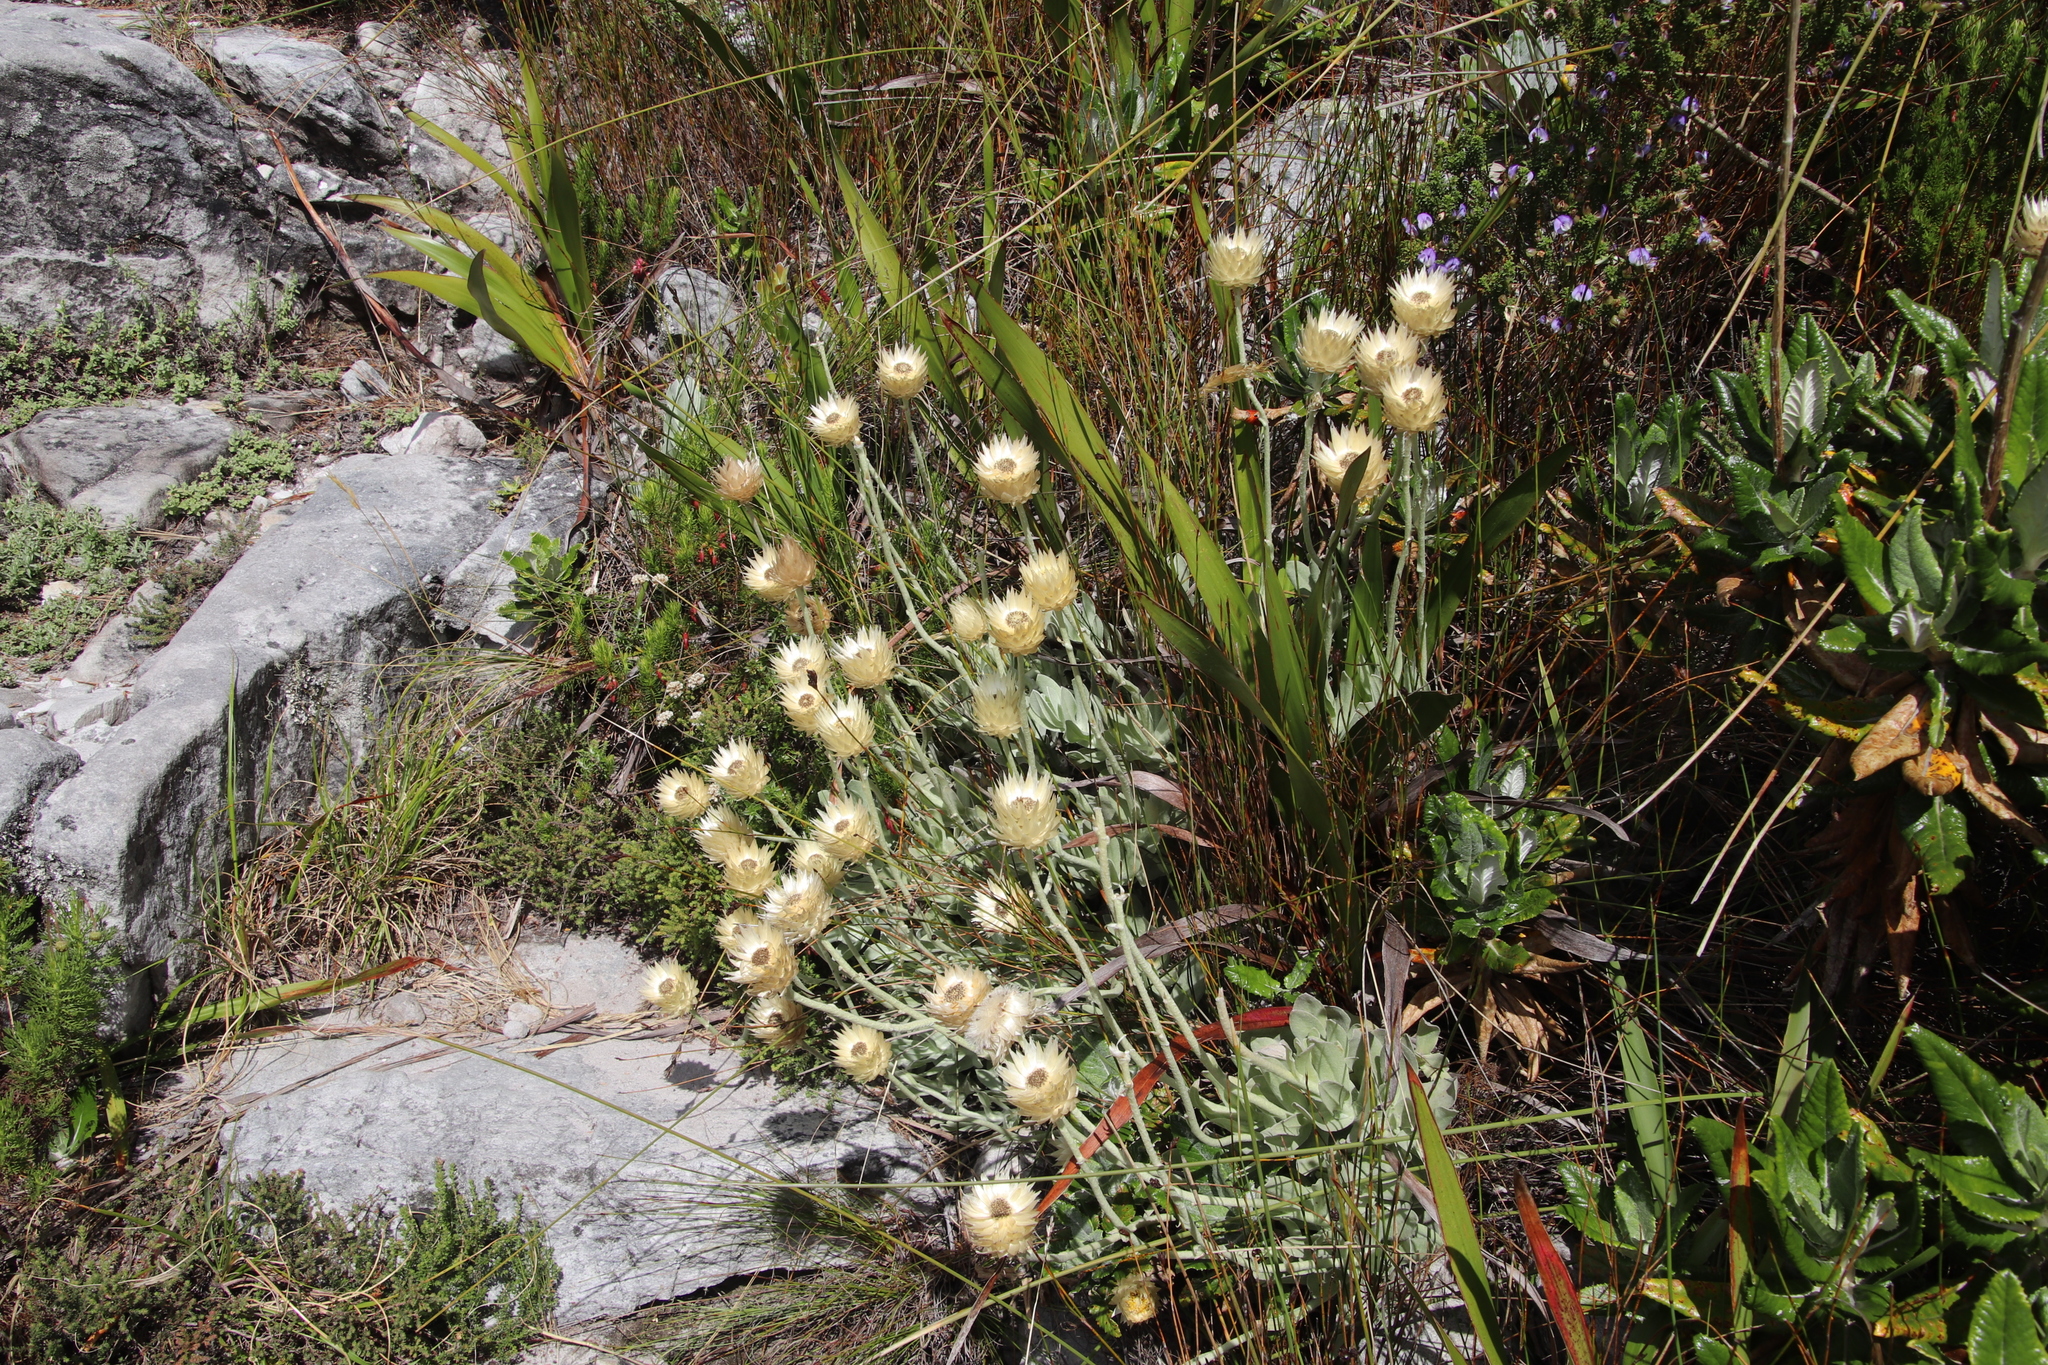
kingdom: Plantae
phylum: Tracheophyta
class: Magnoliopsida
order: Asterales
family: Asteraceae
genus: Syncarpha
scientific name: Syncarpha speciosissima
